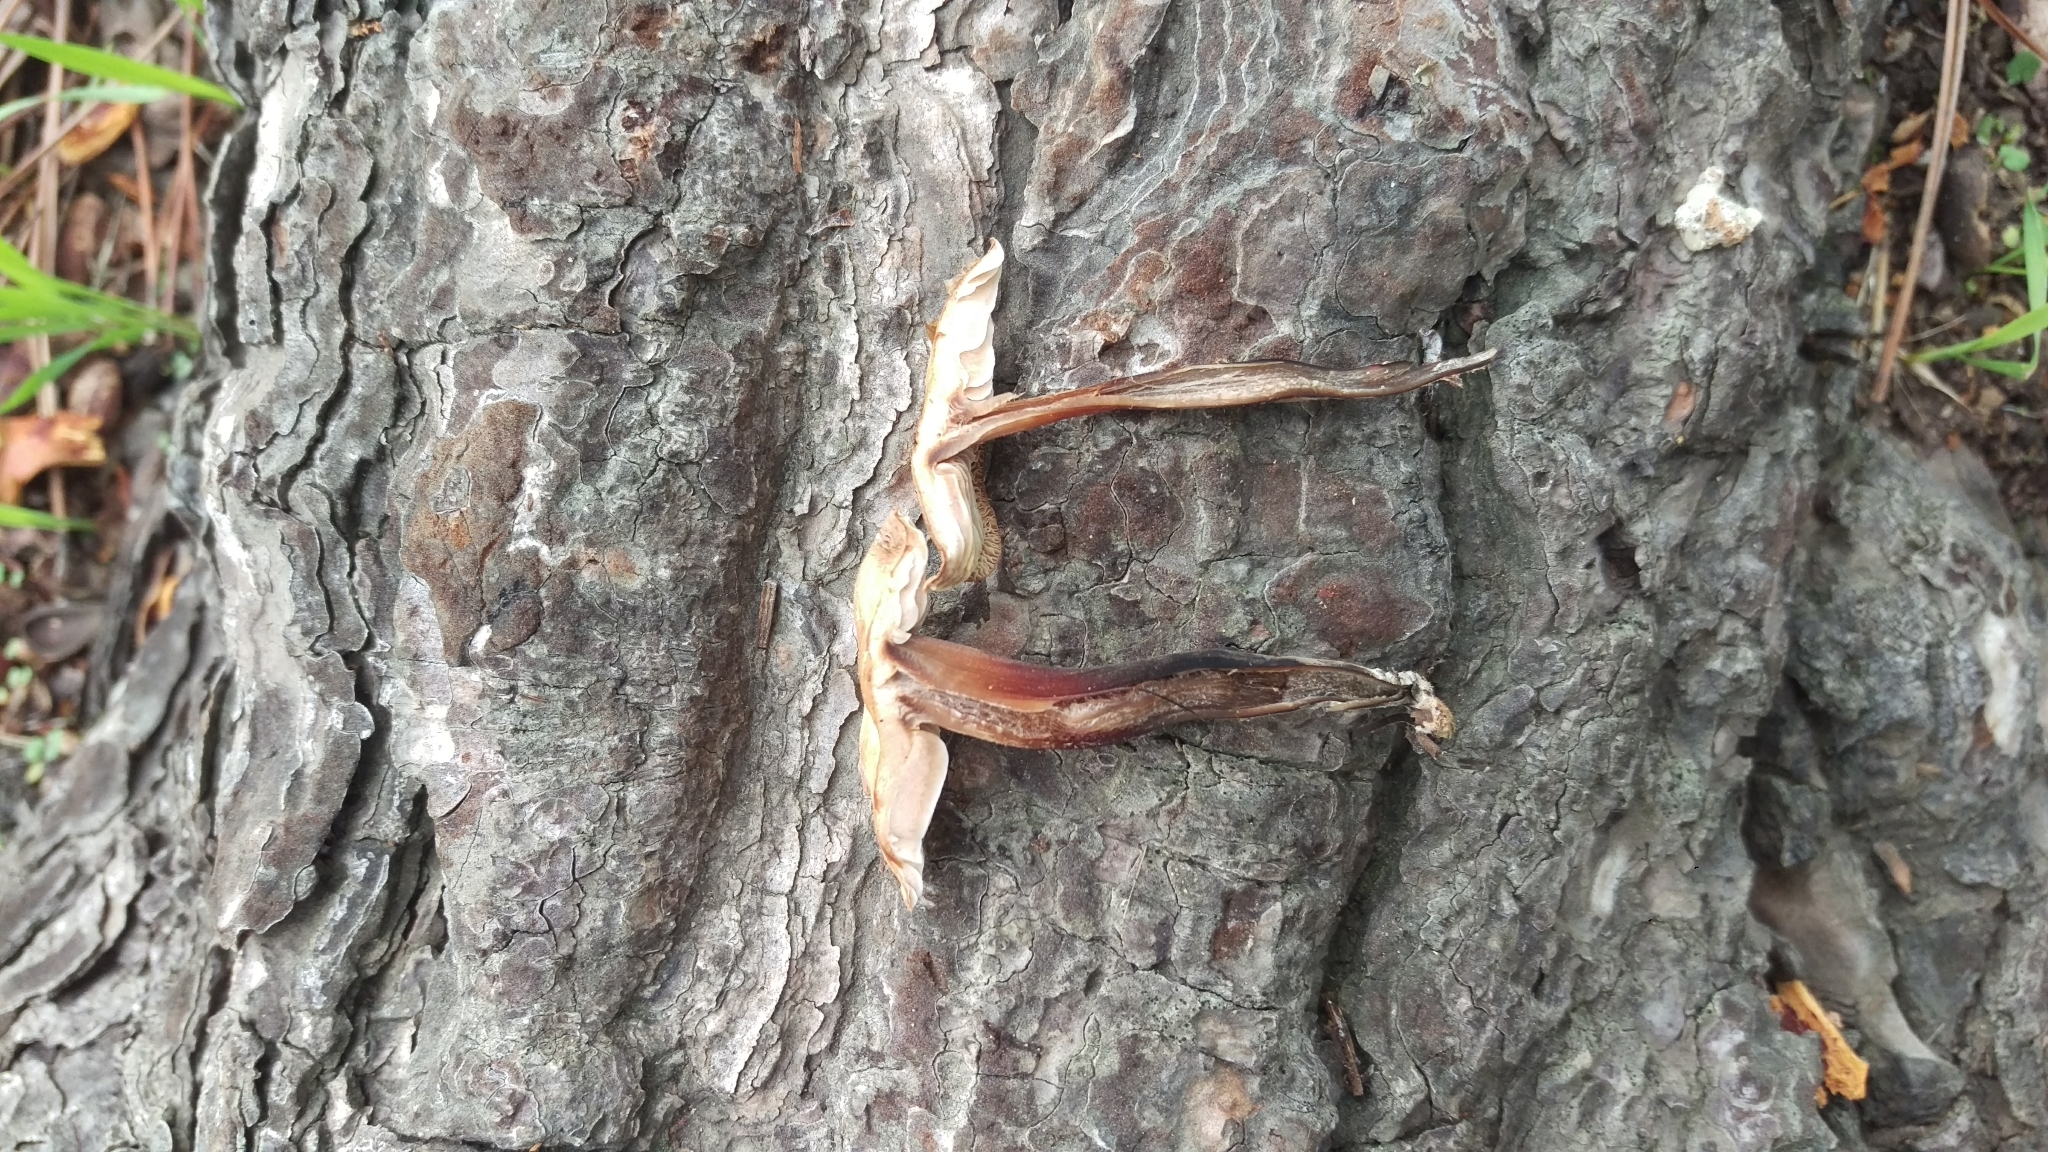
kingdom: Fungi
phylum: Basidiomycota
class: Agaricomycetes
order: Agaricales
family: Omphalotaceae
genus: Gymnopus
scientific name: Gymnopus brassicolens
